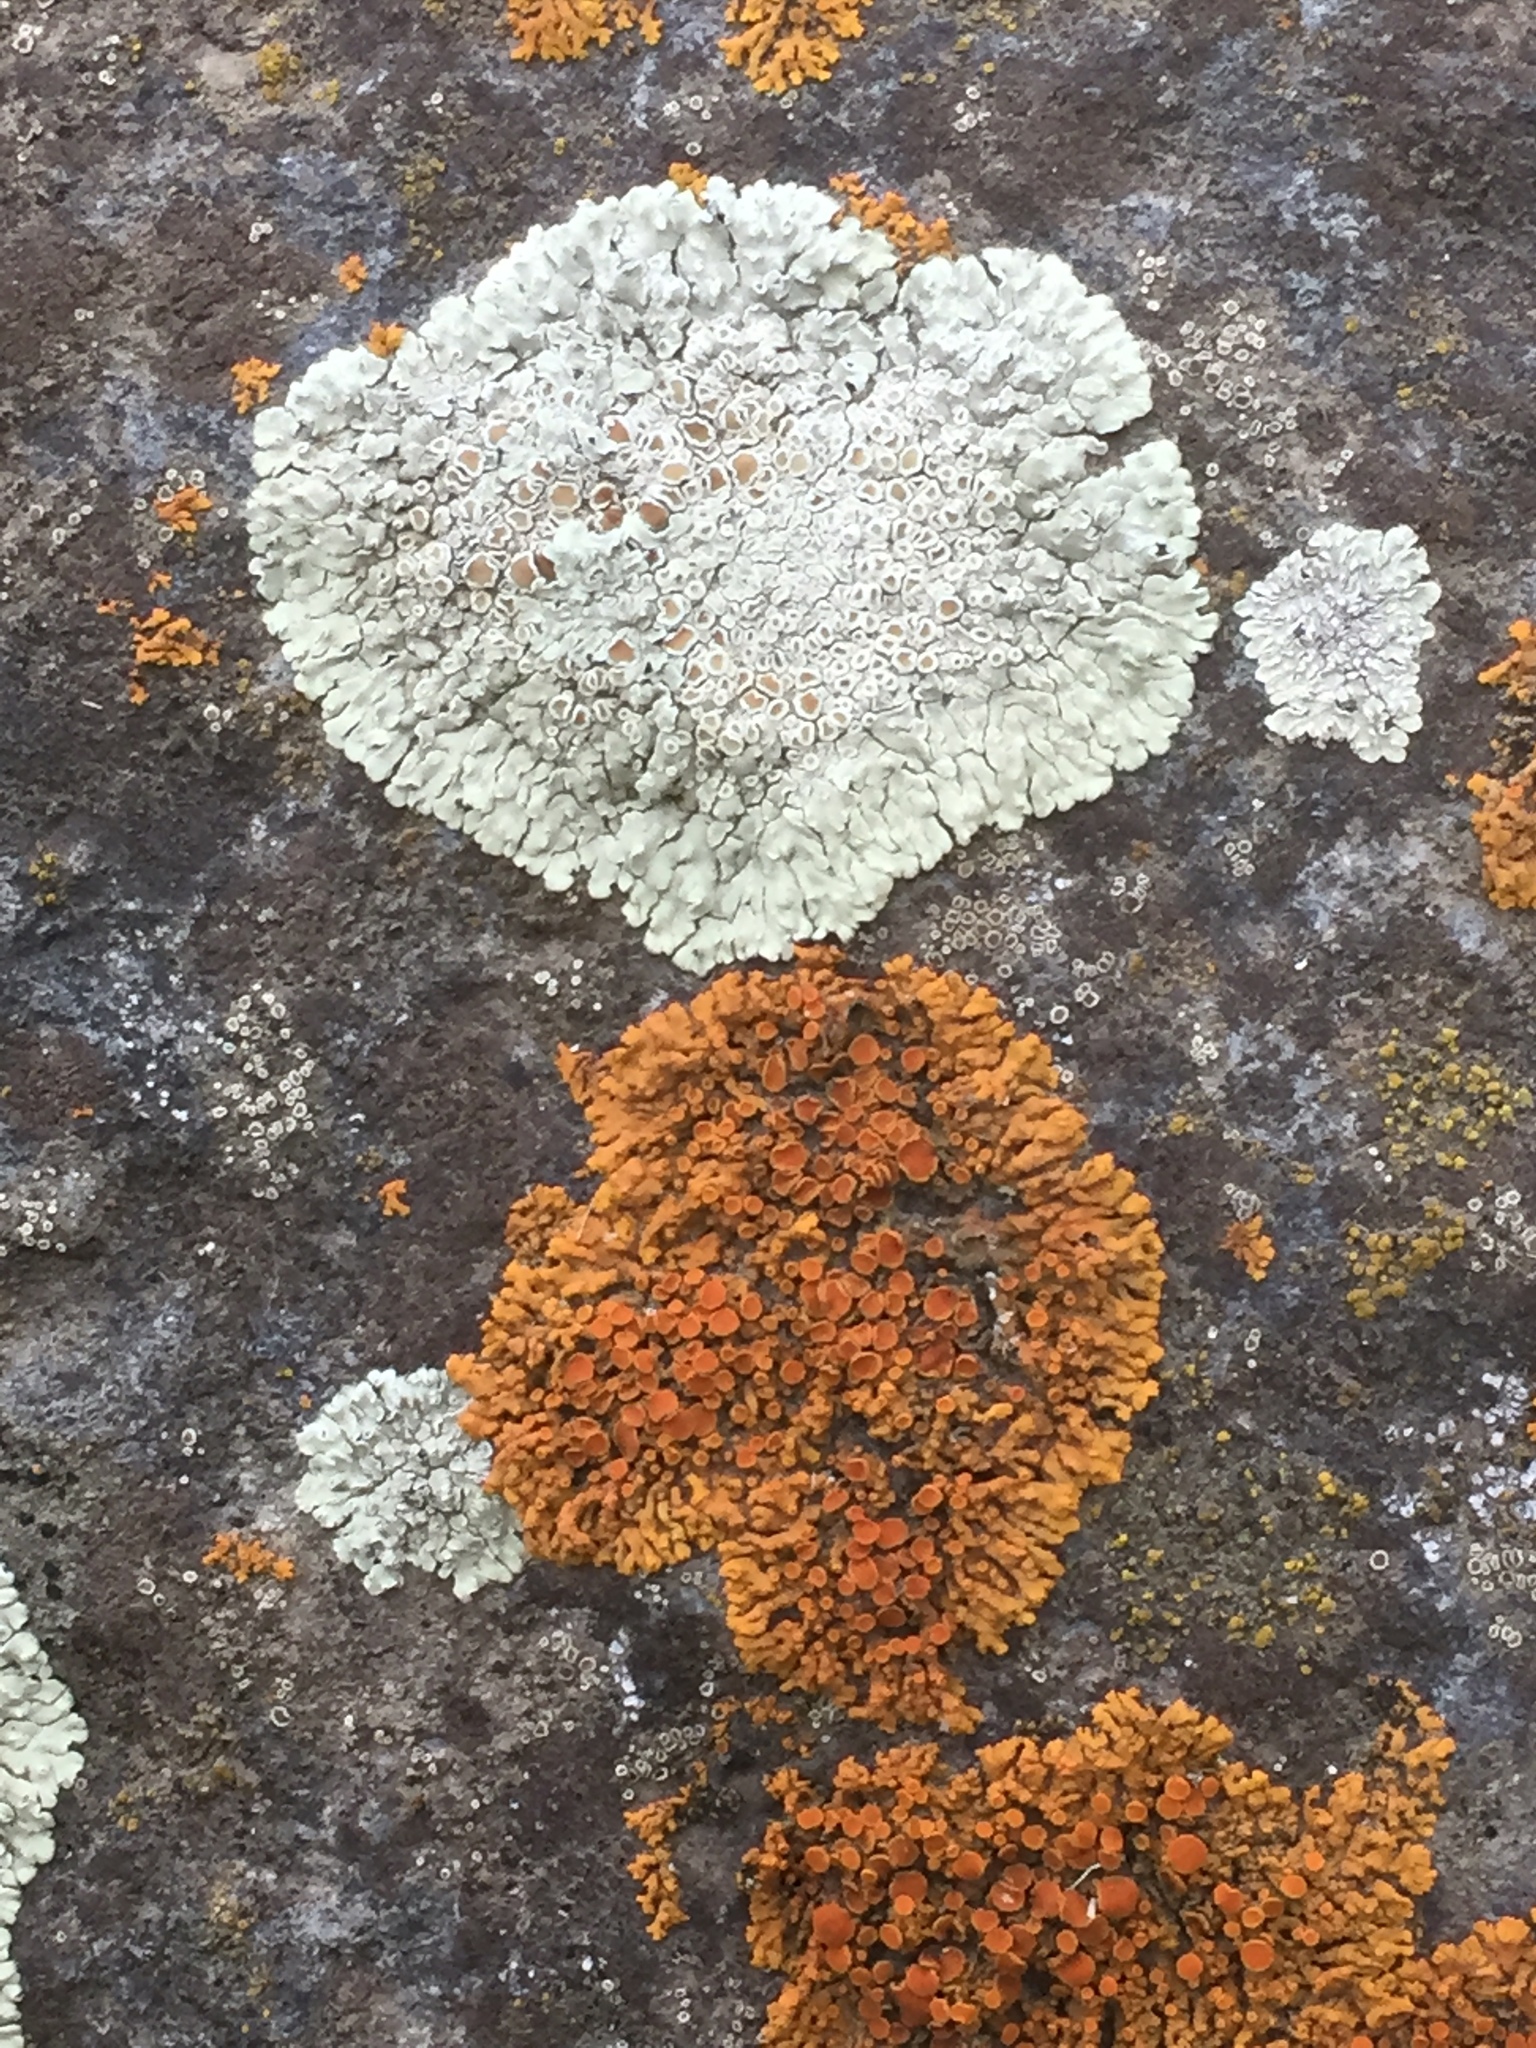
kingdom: Fungi
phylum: Ascomycota
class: Lecanoromycetes
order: Teloschistales
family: Teloschistaceae
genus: Xanthoria
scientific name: Xanthoria elegans
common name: Elegant sunburst lichen
